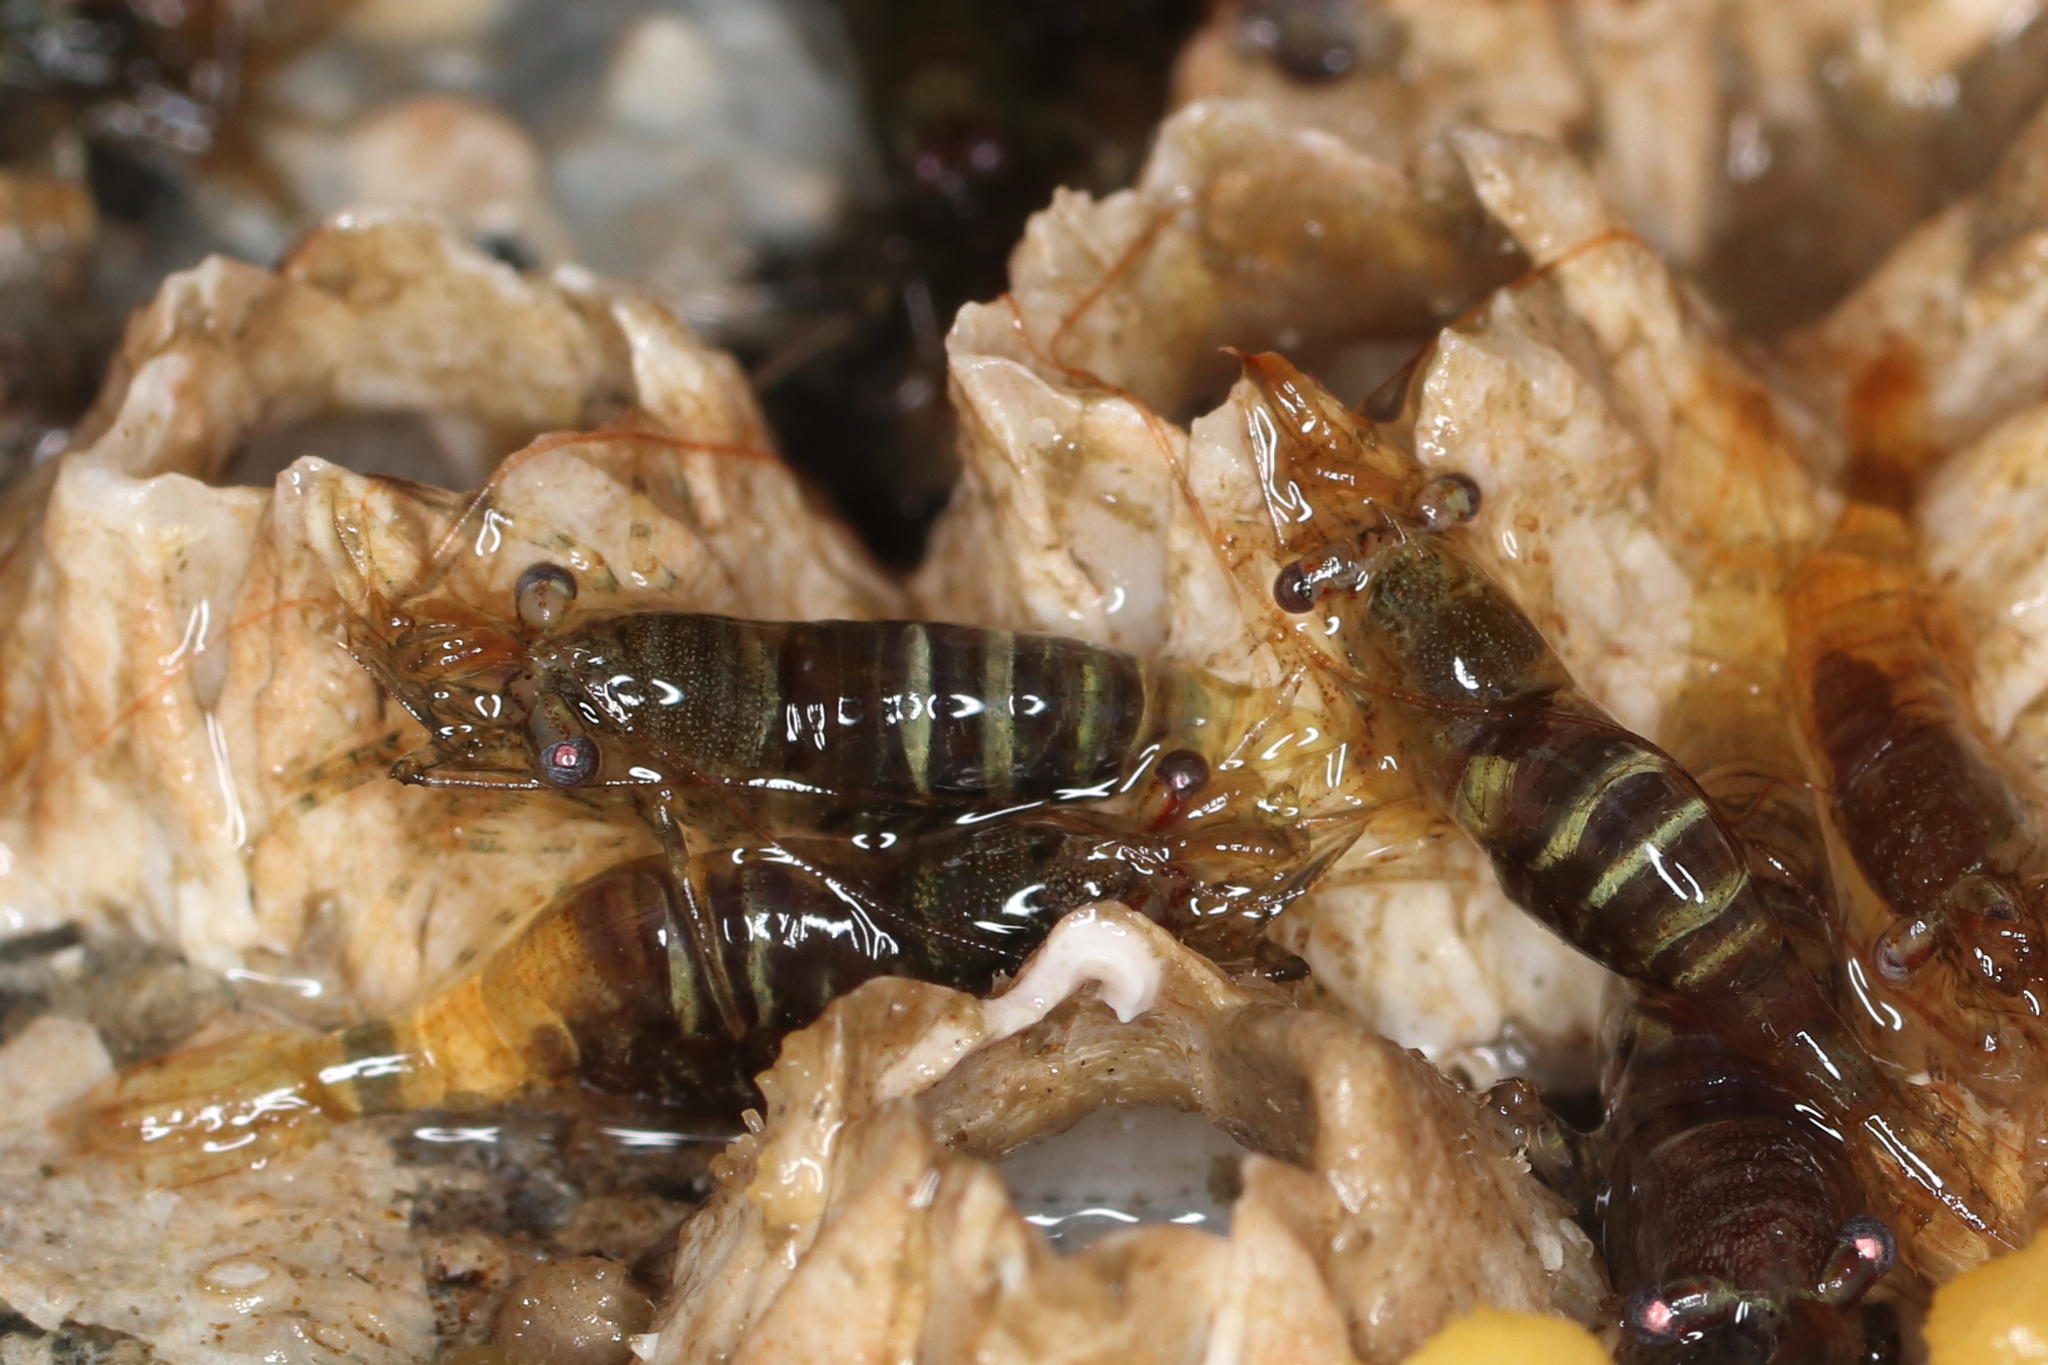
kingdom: Animalia
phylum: Arthropoda
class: Malacostraca
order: Decapoda
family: Thoridae
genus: Heptacarpus
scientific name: Heptacarpus pugettensis
